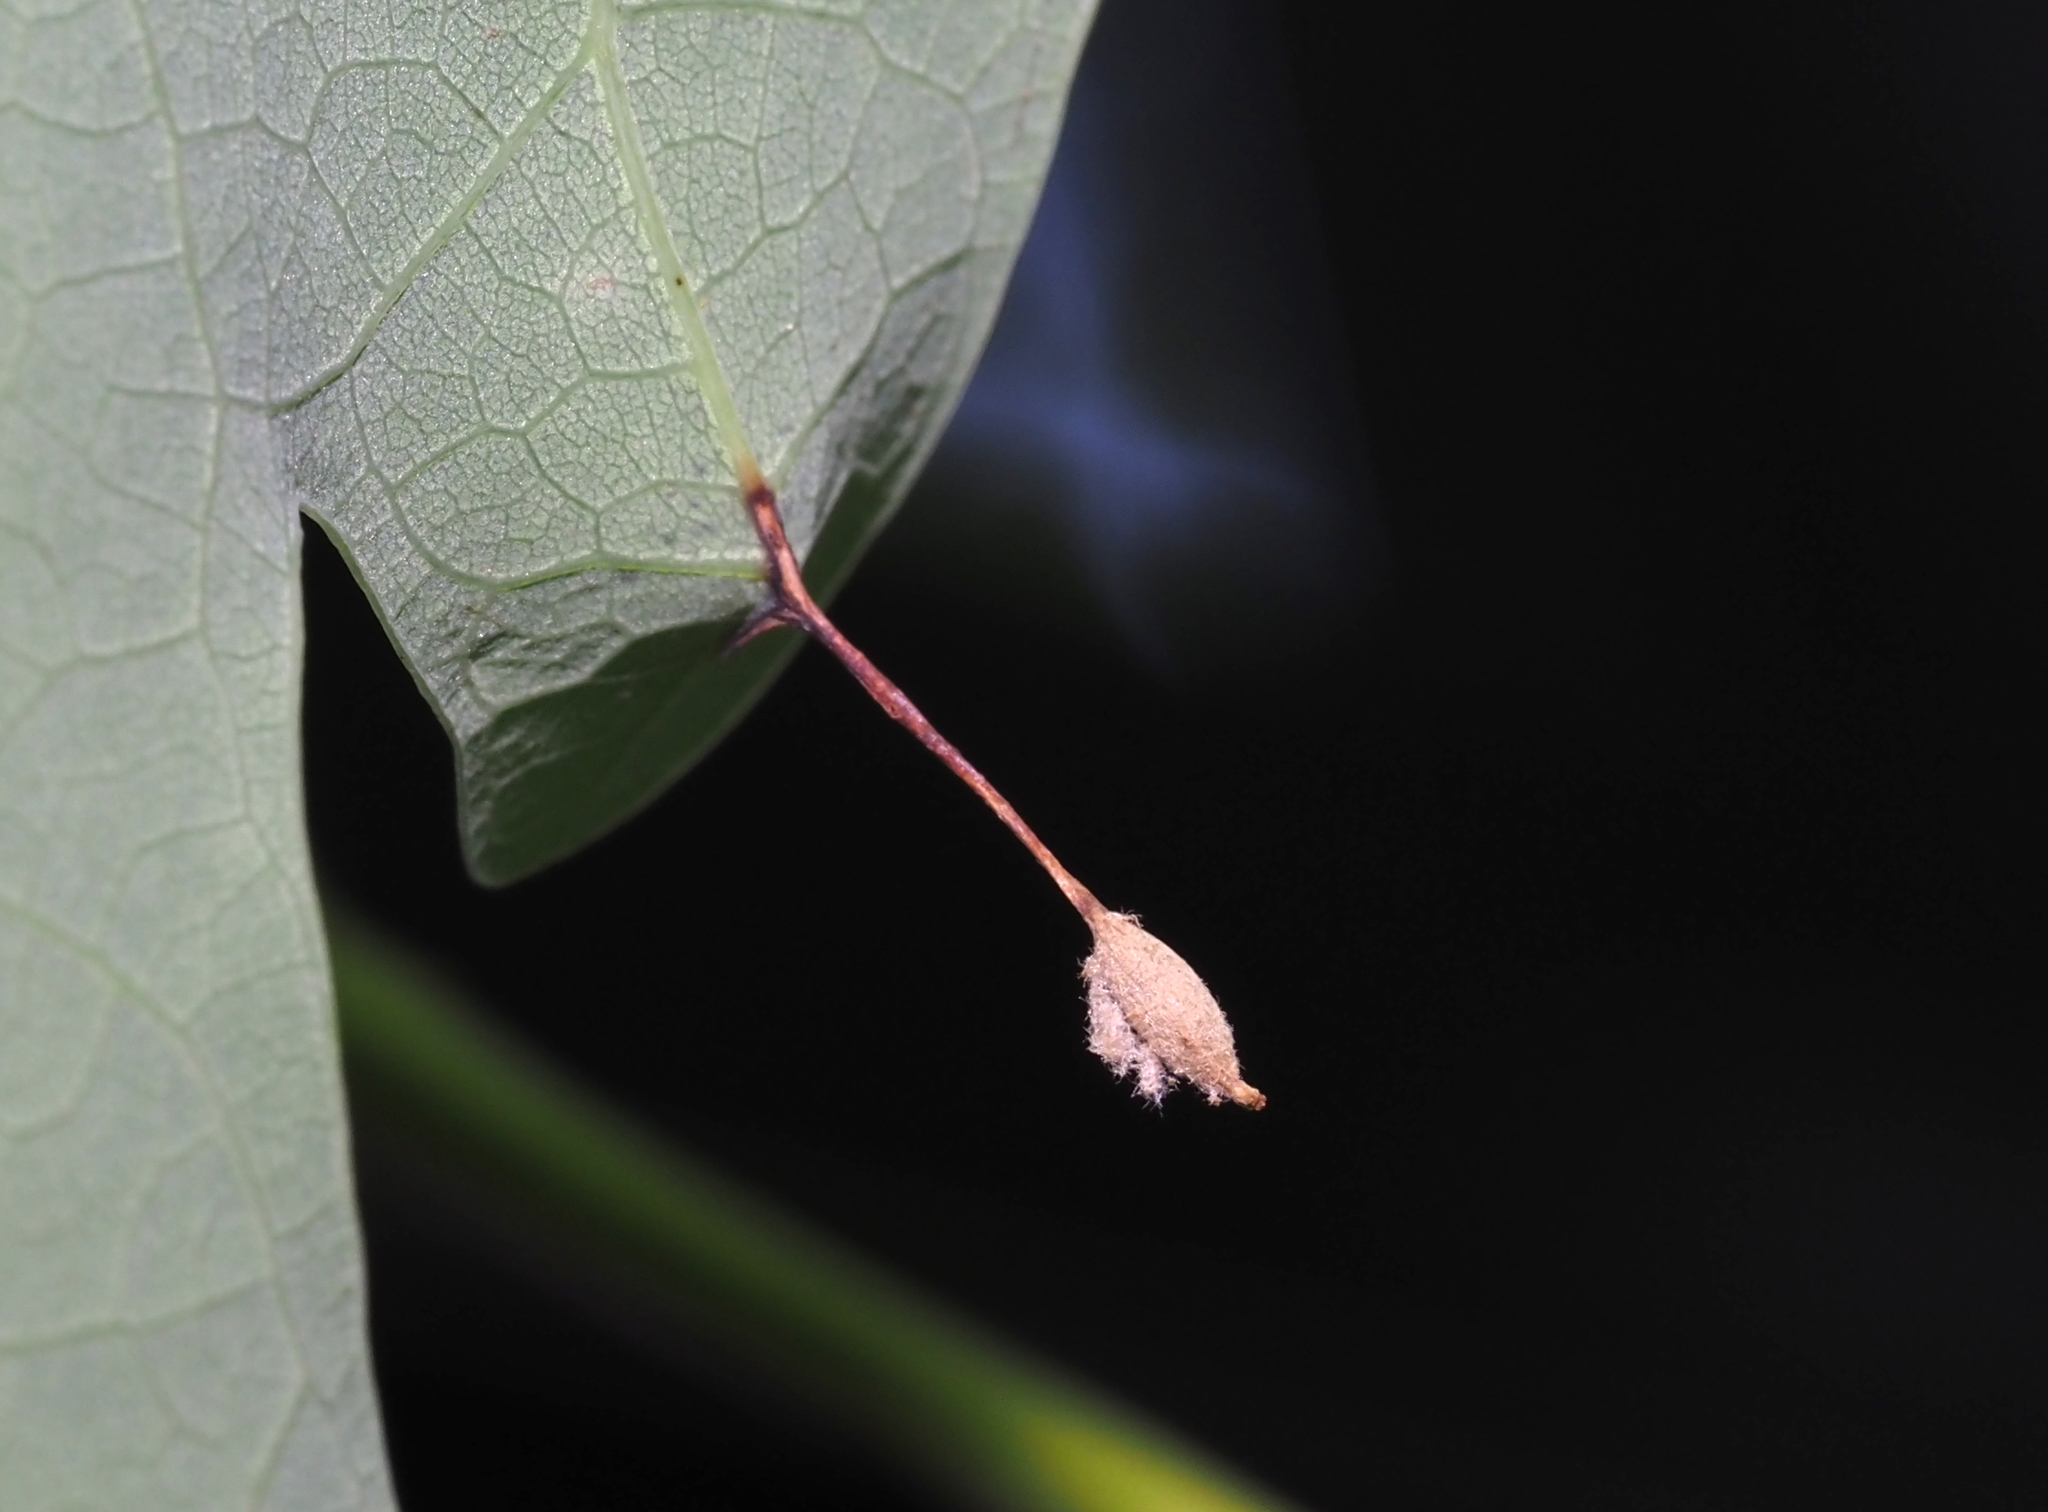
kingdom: Animalia
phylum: Arthropoda
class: Insecta
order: Hymenoptera
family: Cynipidae
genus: Andricus
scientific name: Andricus
